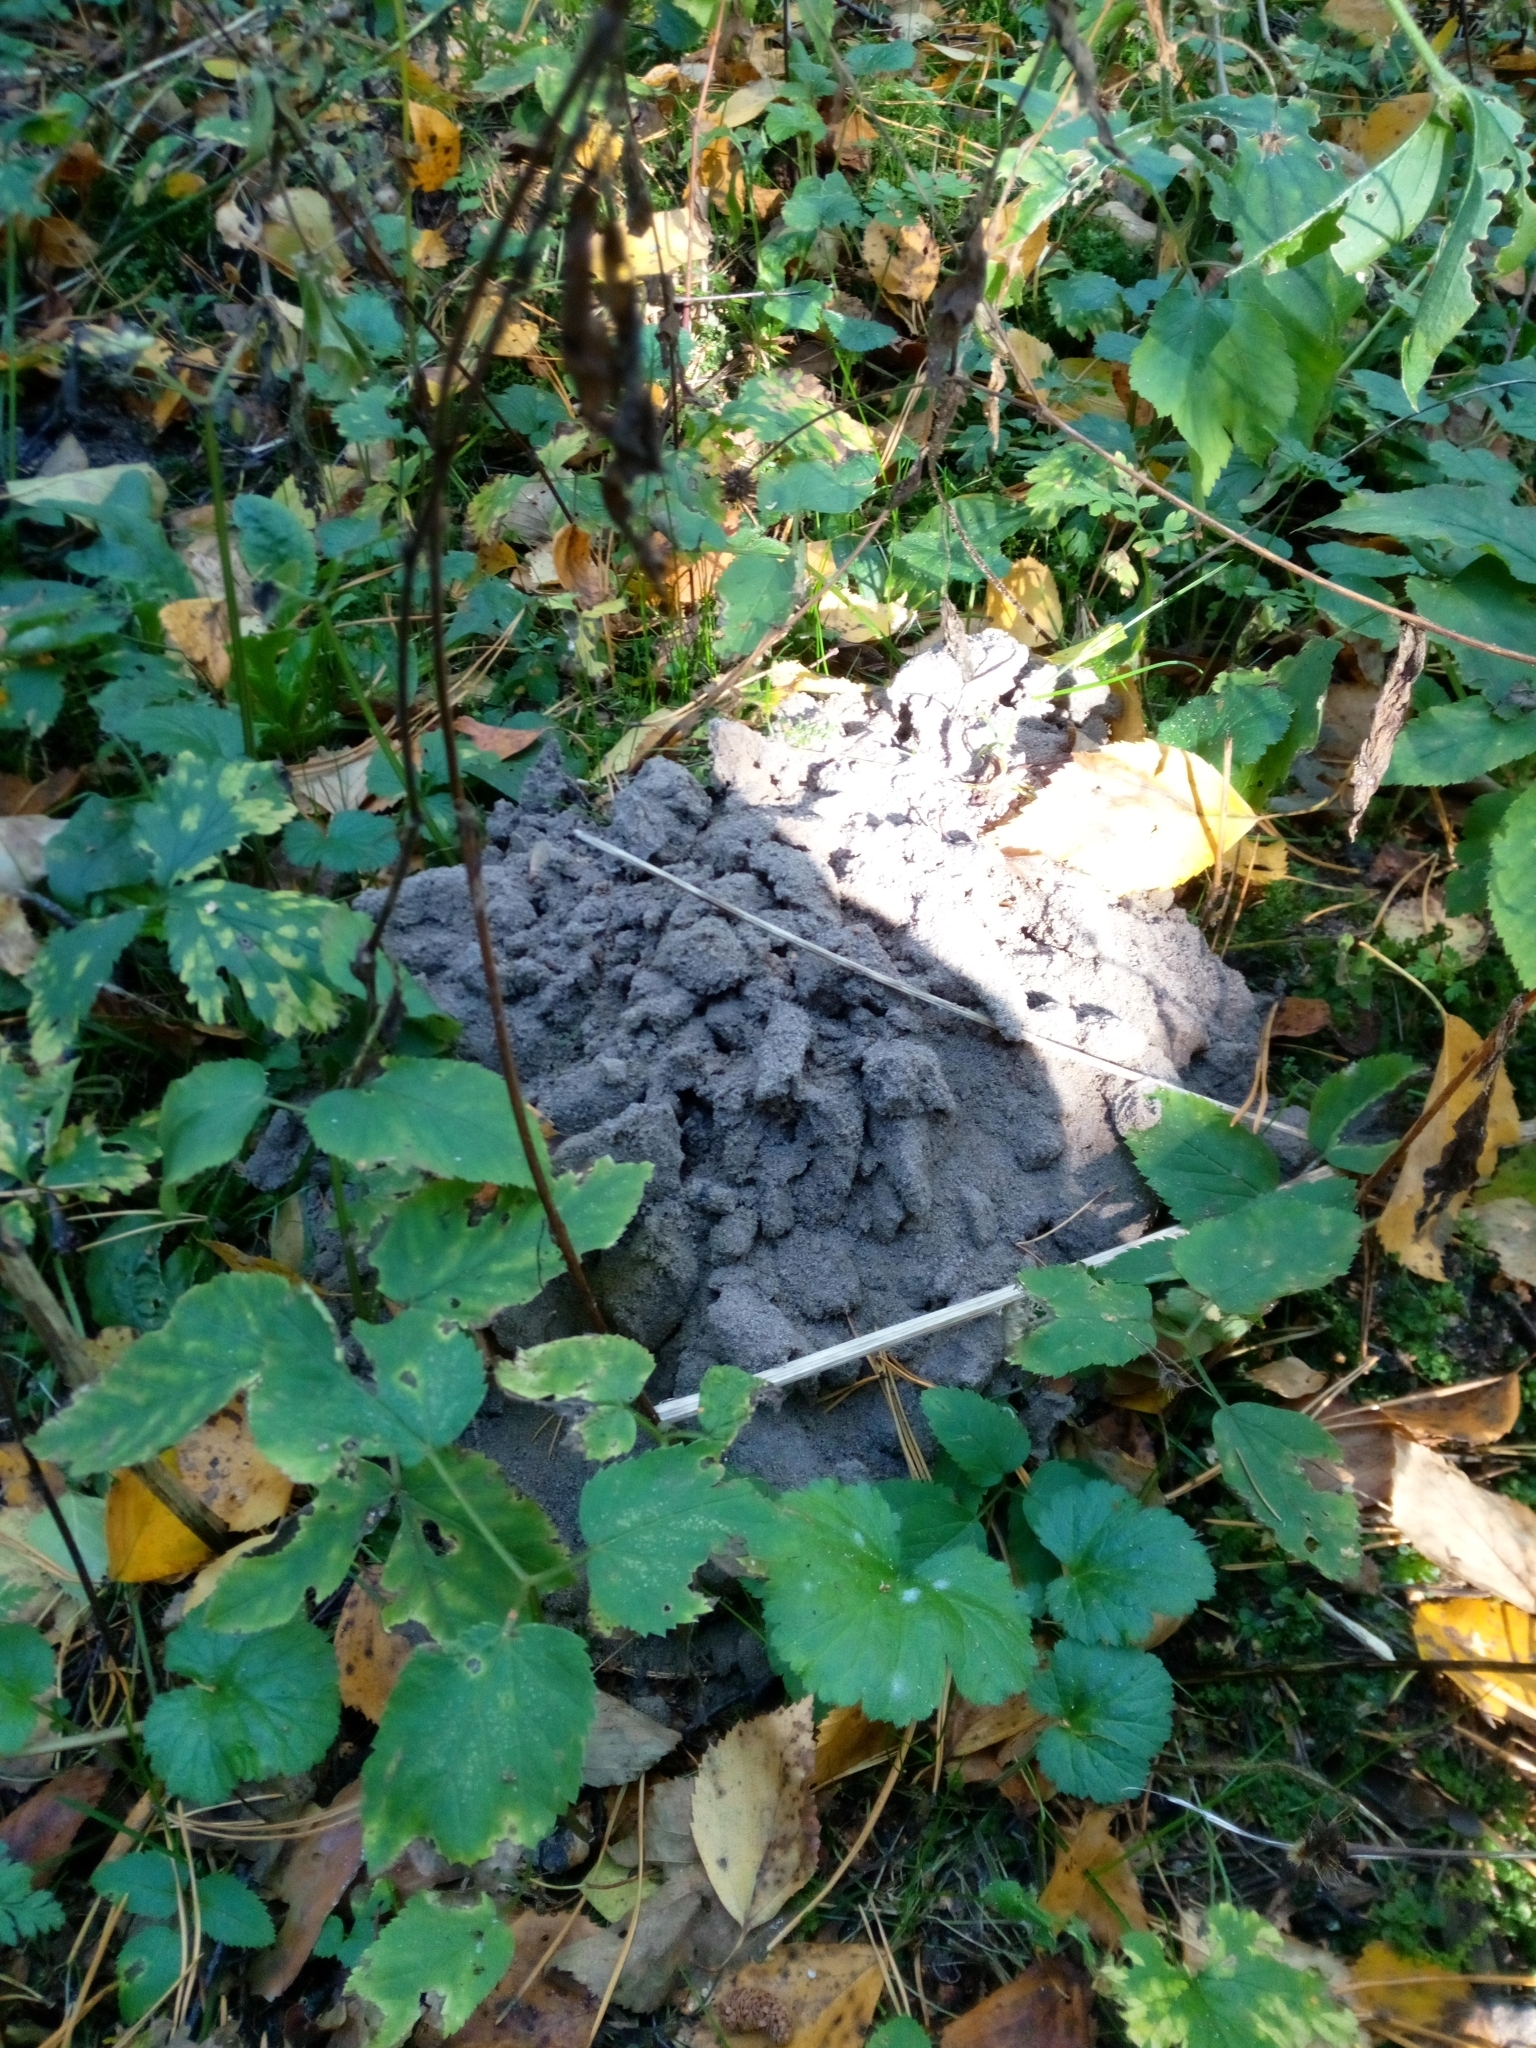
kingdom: Animalia
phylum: Chordata
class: Mammalia
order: Soricomorpha
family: Talpidae
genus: Talpa
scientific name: Talpa europaea
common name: European mole
